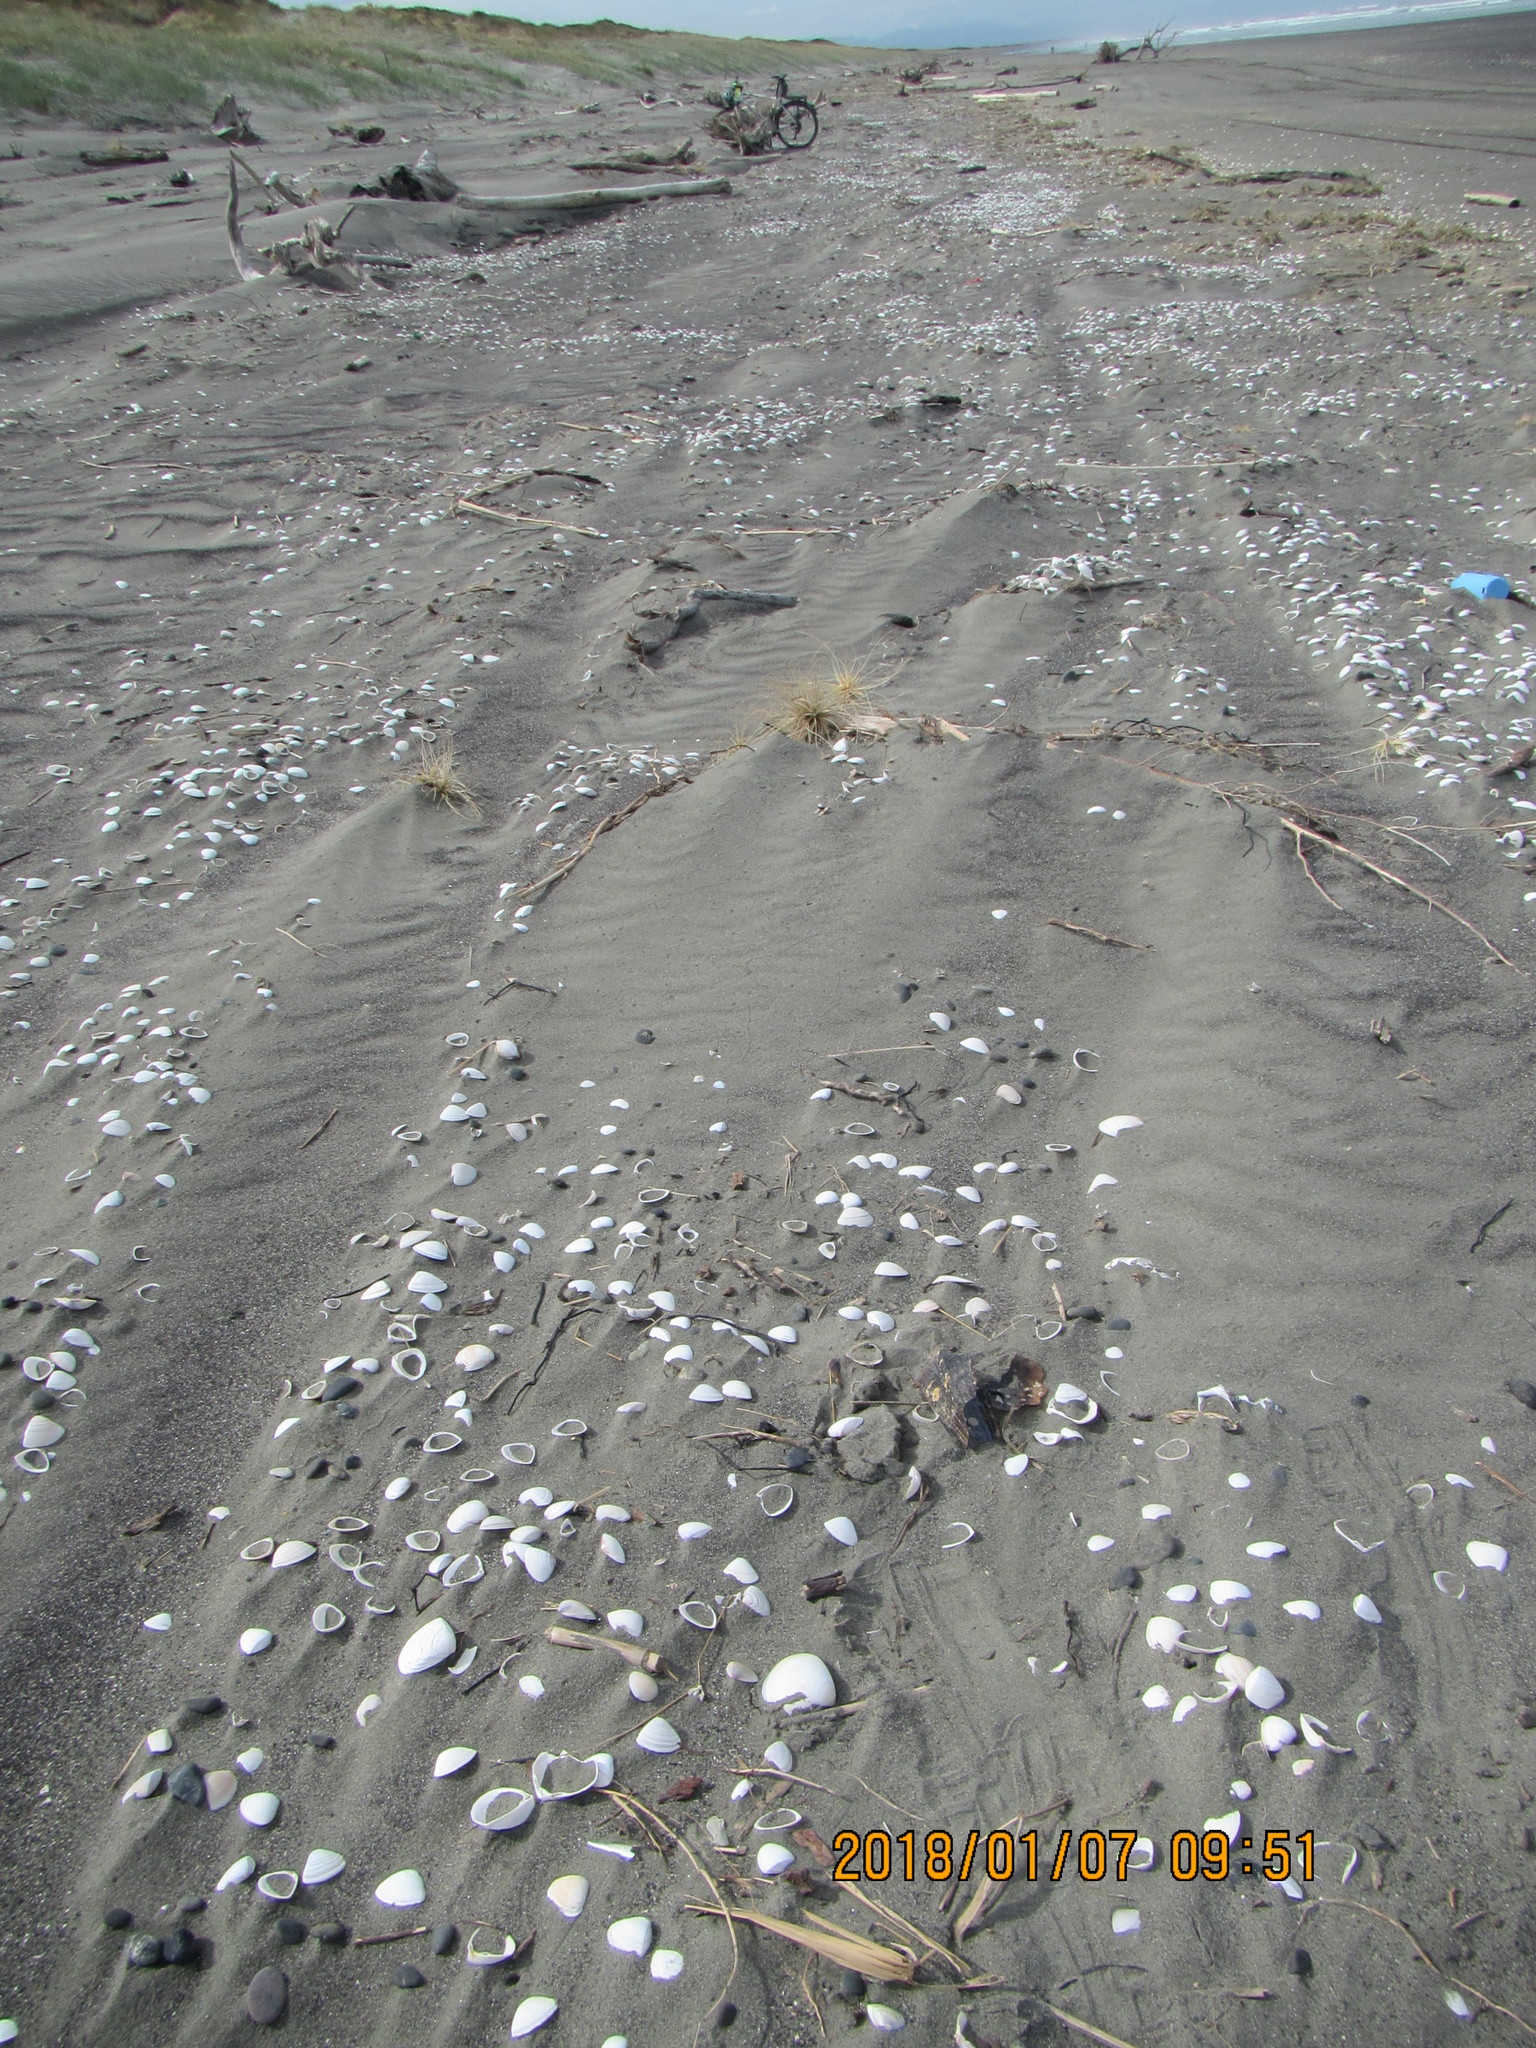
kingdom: Animalia
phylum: Mollusca
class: Bivalvia
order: Ostreida
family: Pinnidae
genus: Atrina
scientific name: Atrina zelandica
